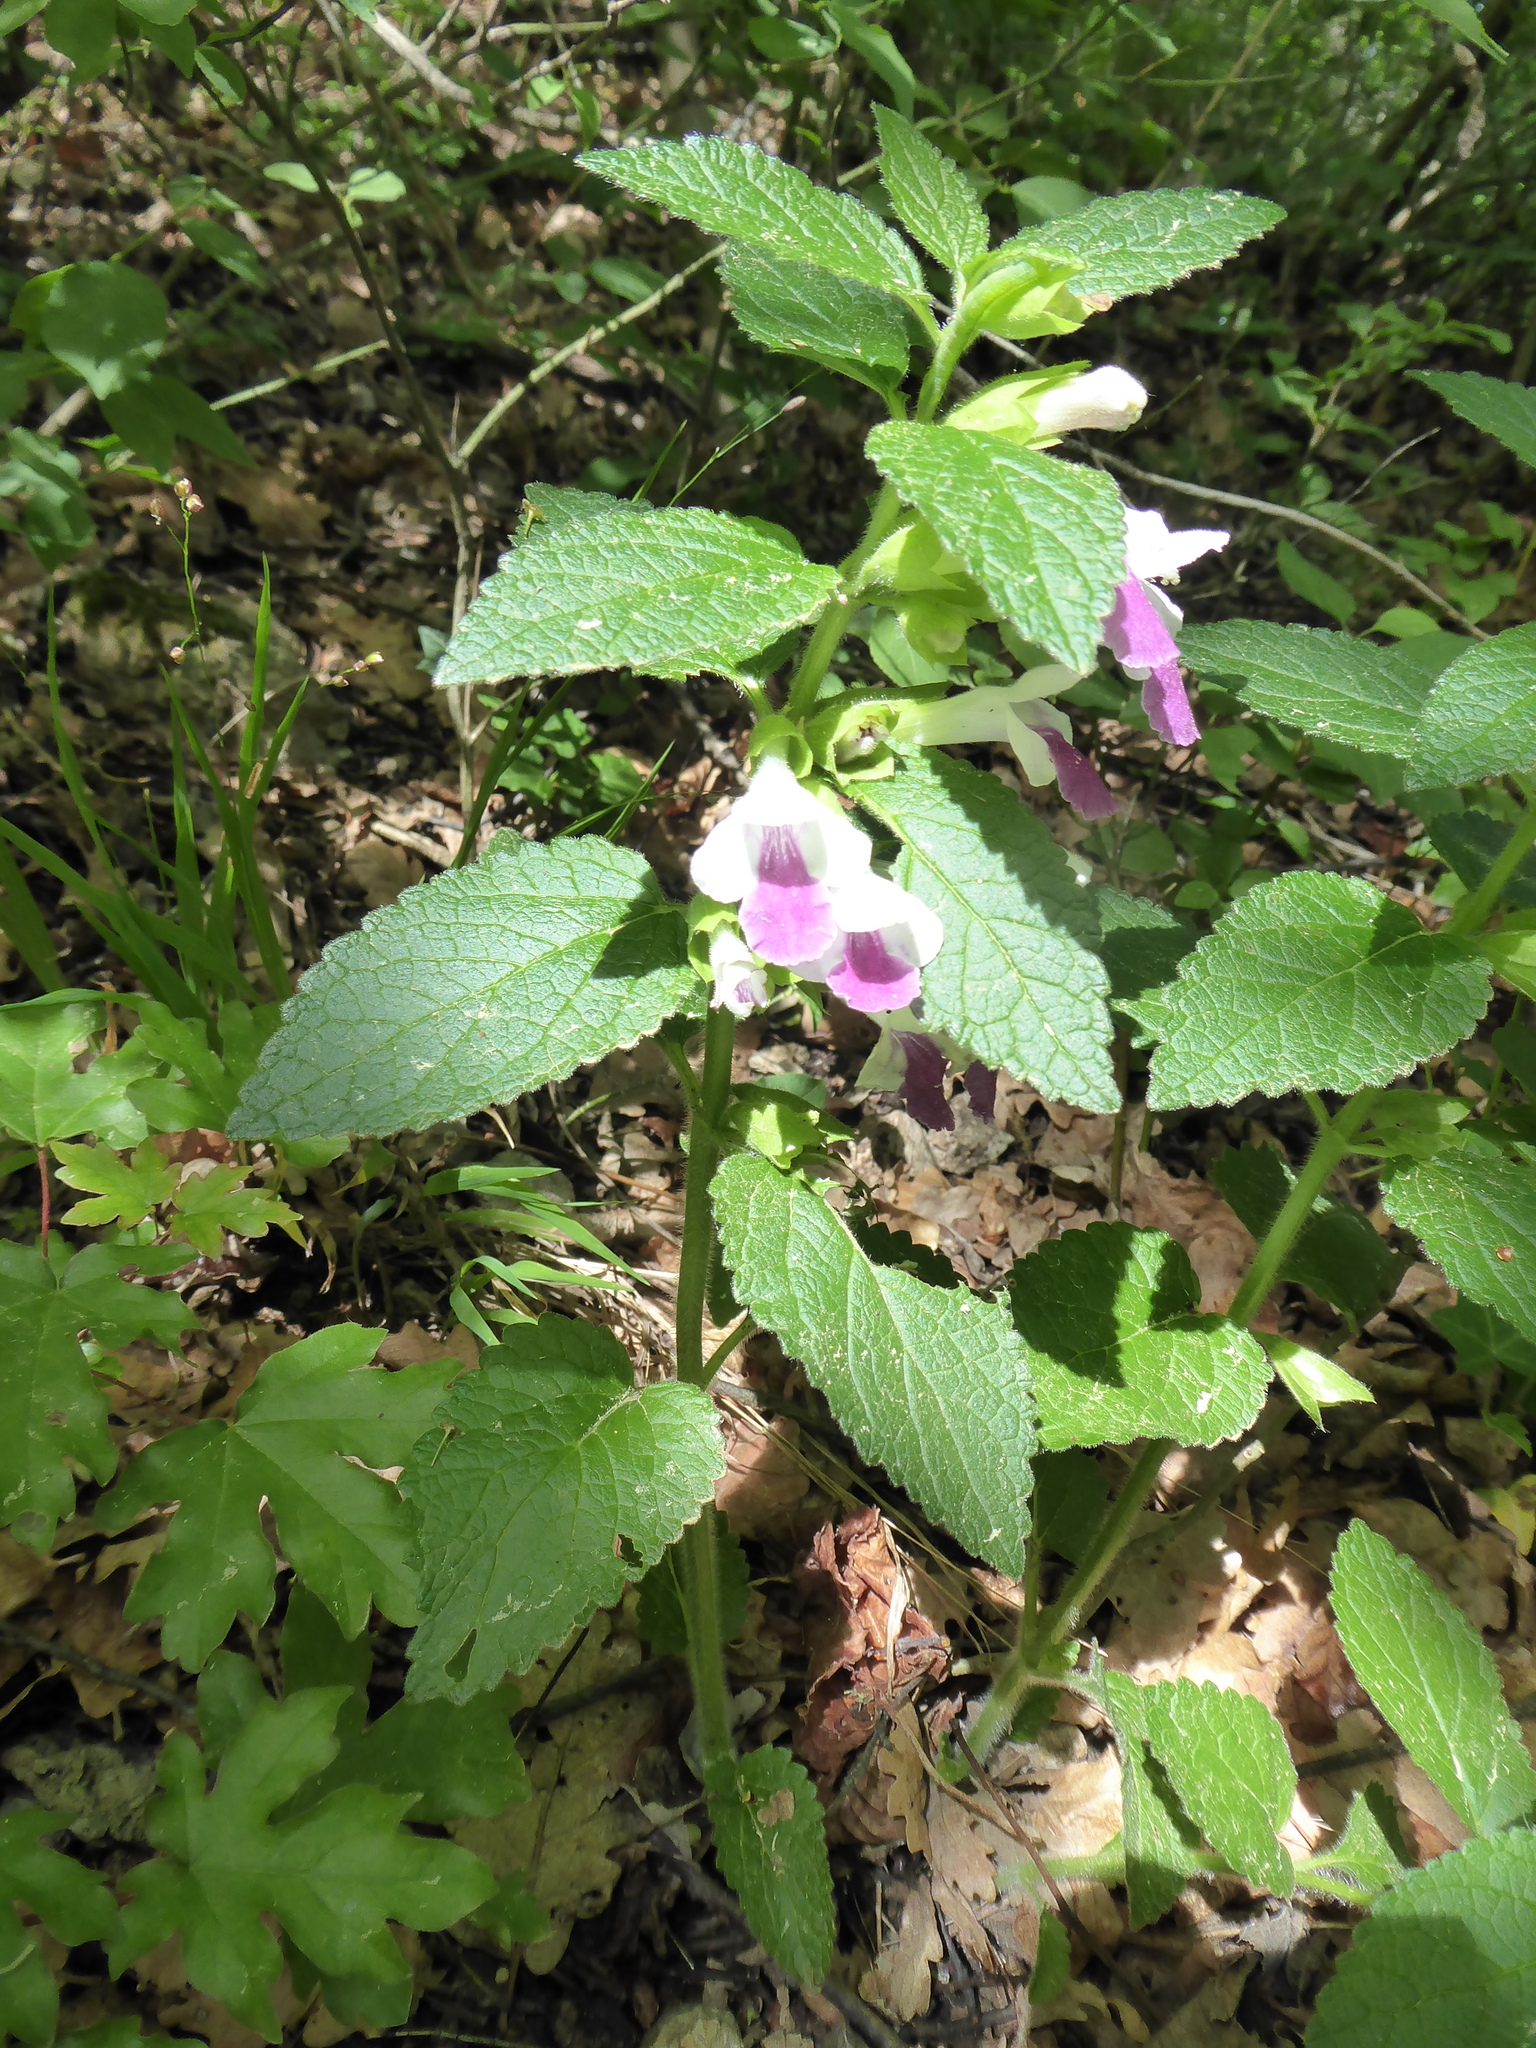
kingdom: Plantae
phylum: Tracheophyta
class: Magnoliopsida
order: Lamiales
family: Lamiaceae
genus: Melittis
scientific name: Melittis melissophyllum
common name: Bastard balm
